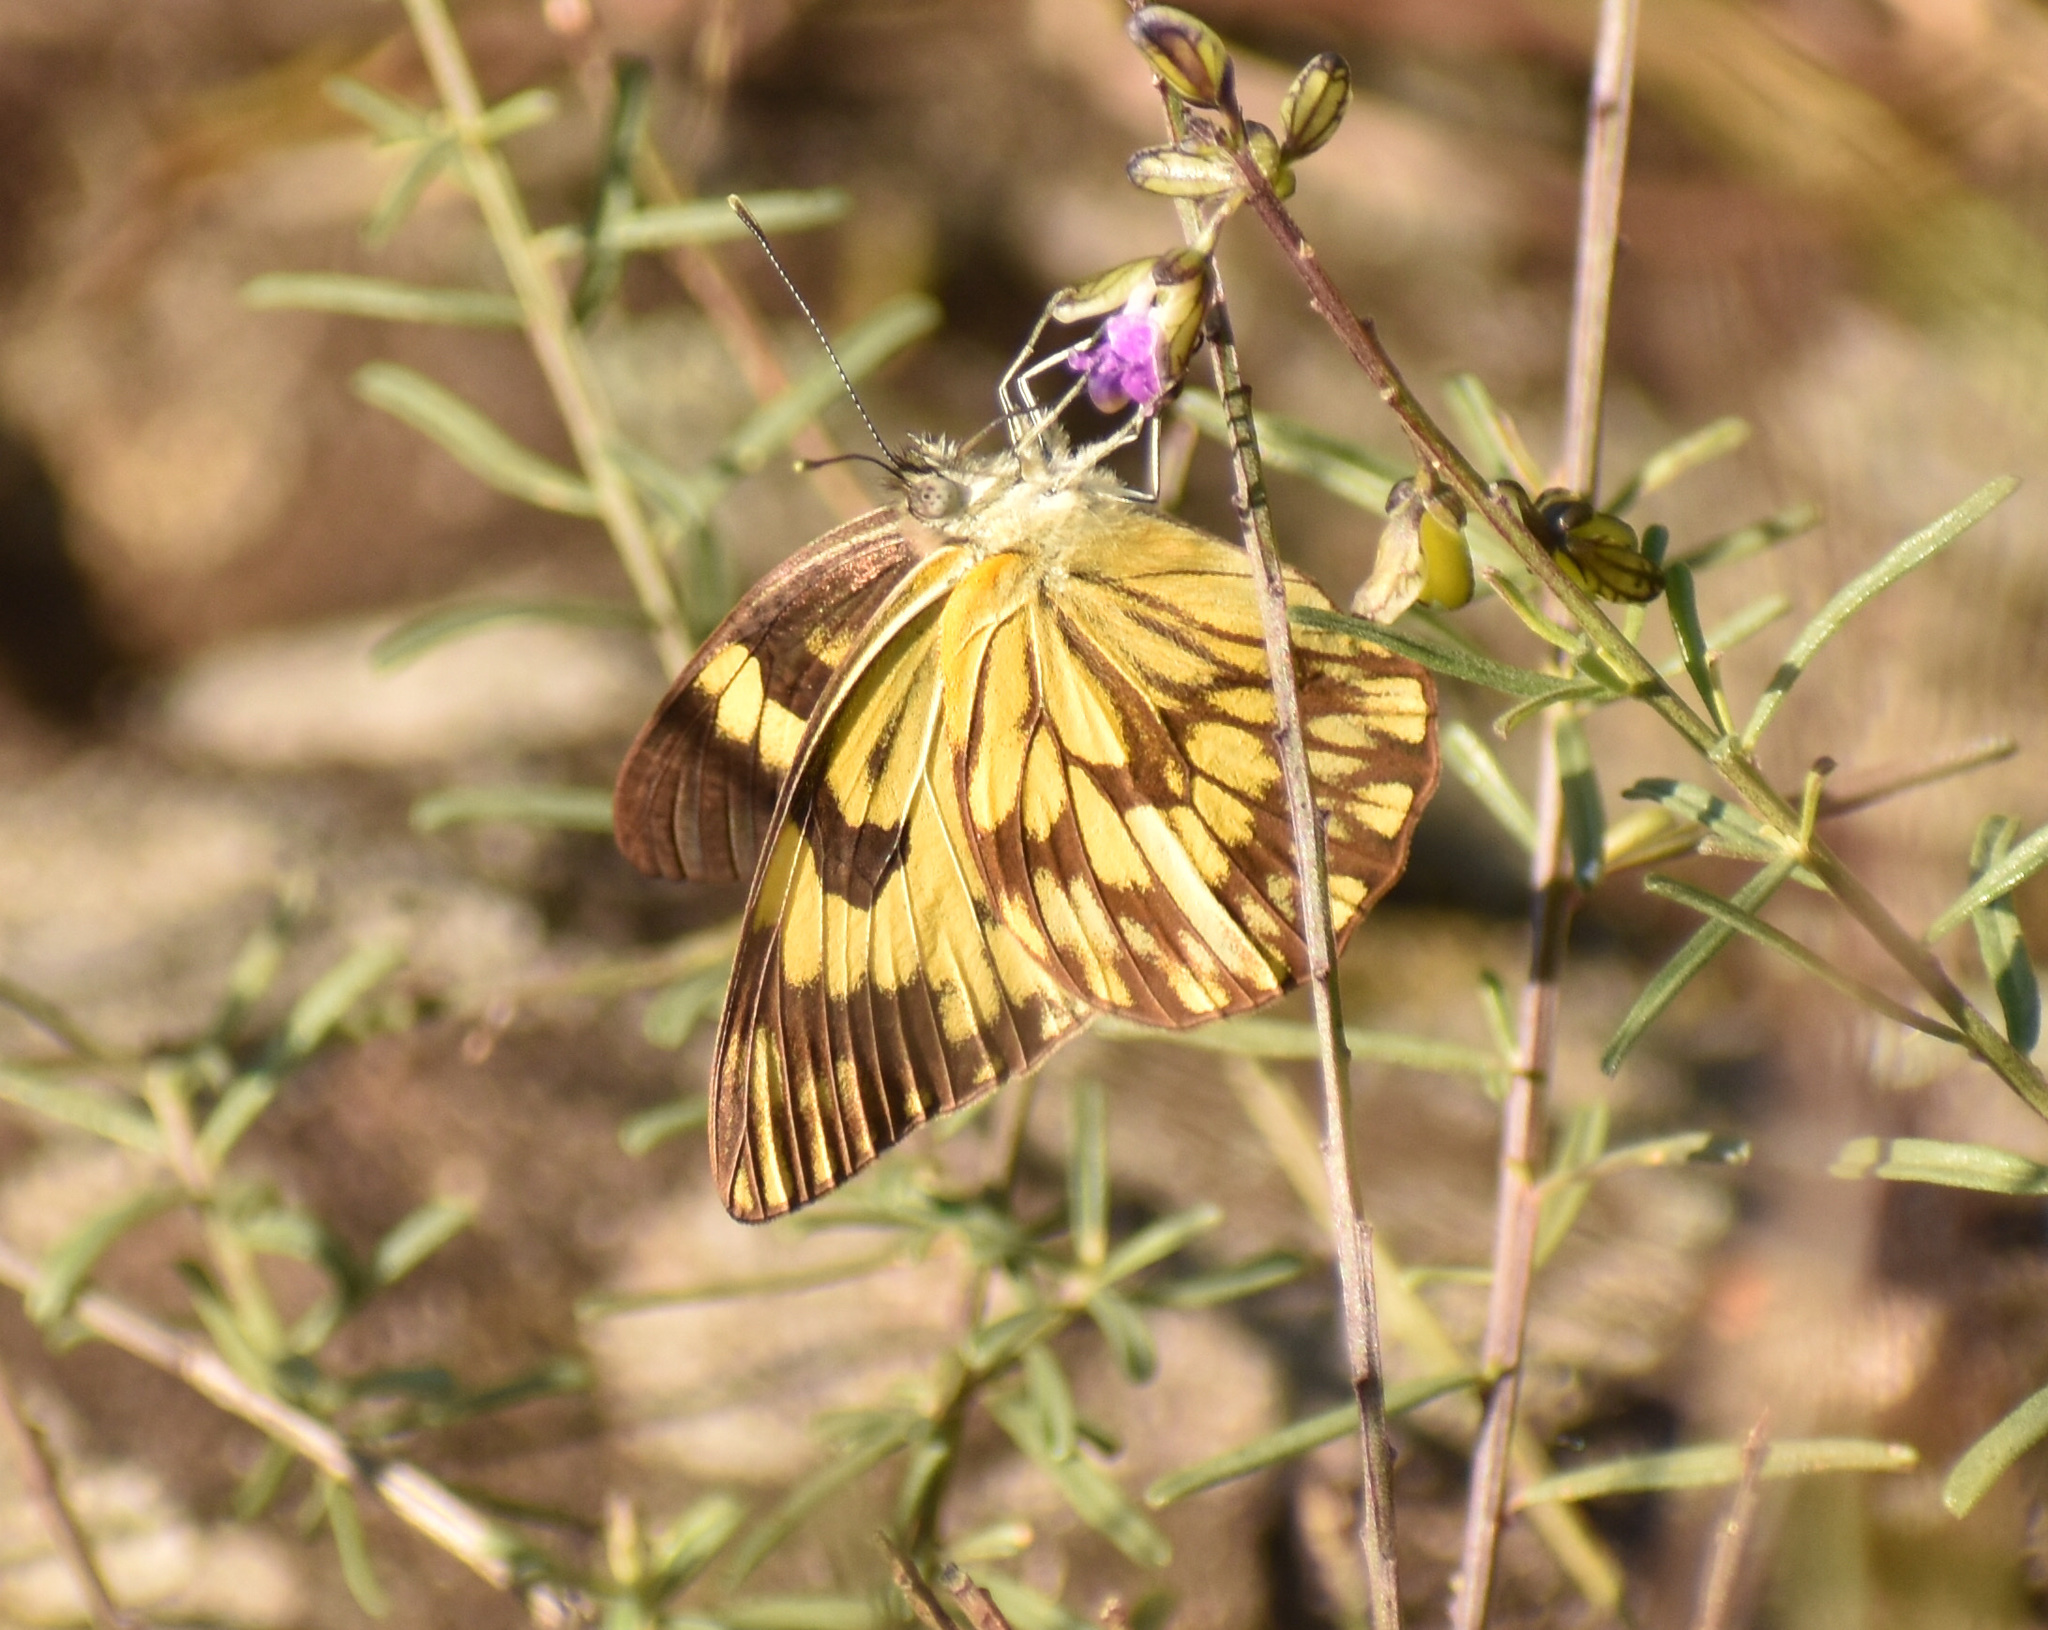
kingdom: Animalia
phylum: Arthropoda
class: Insecta
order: Lepidoptera
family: Pieridae
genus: Belenois
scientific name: Belenois gidica
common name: Pointed caper white
